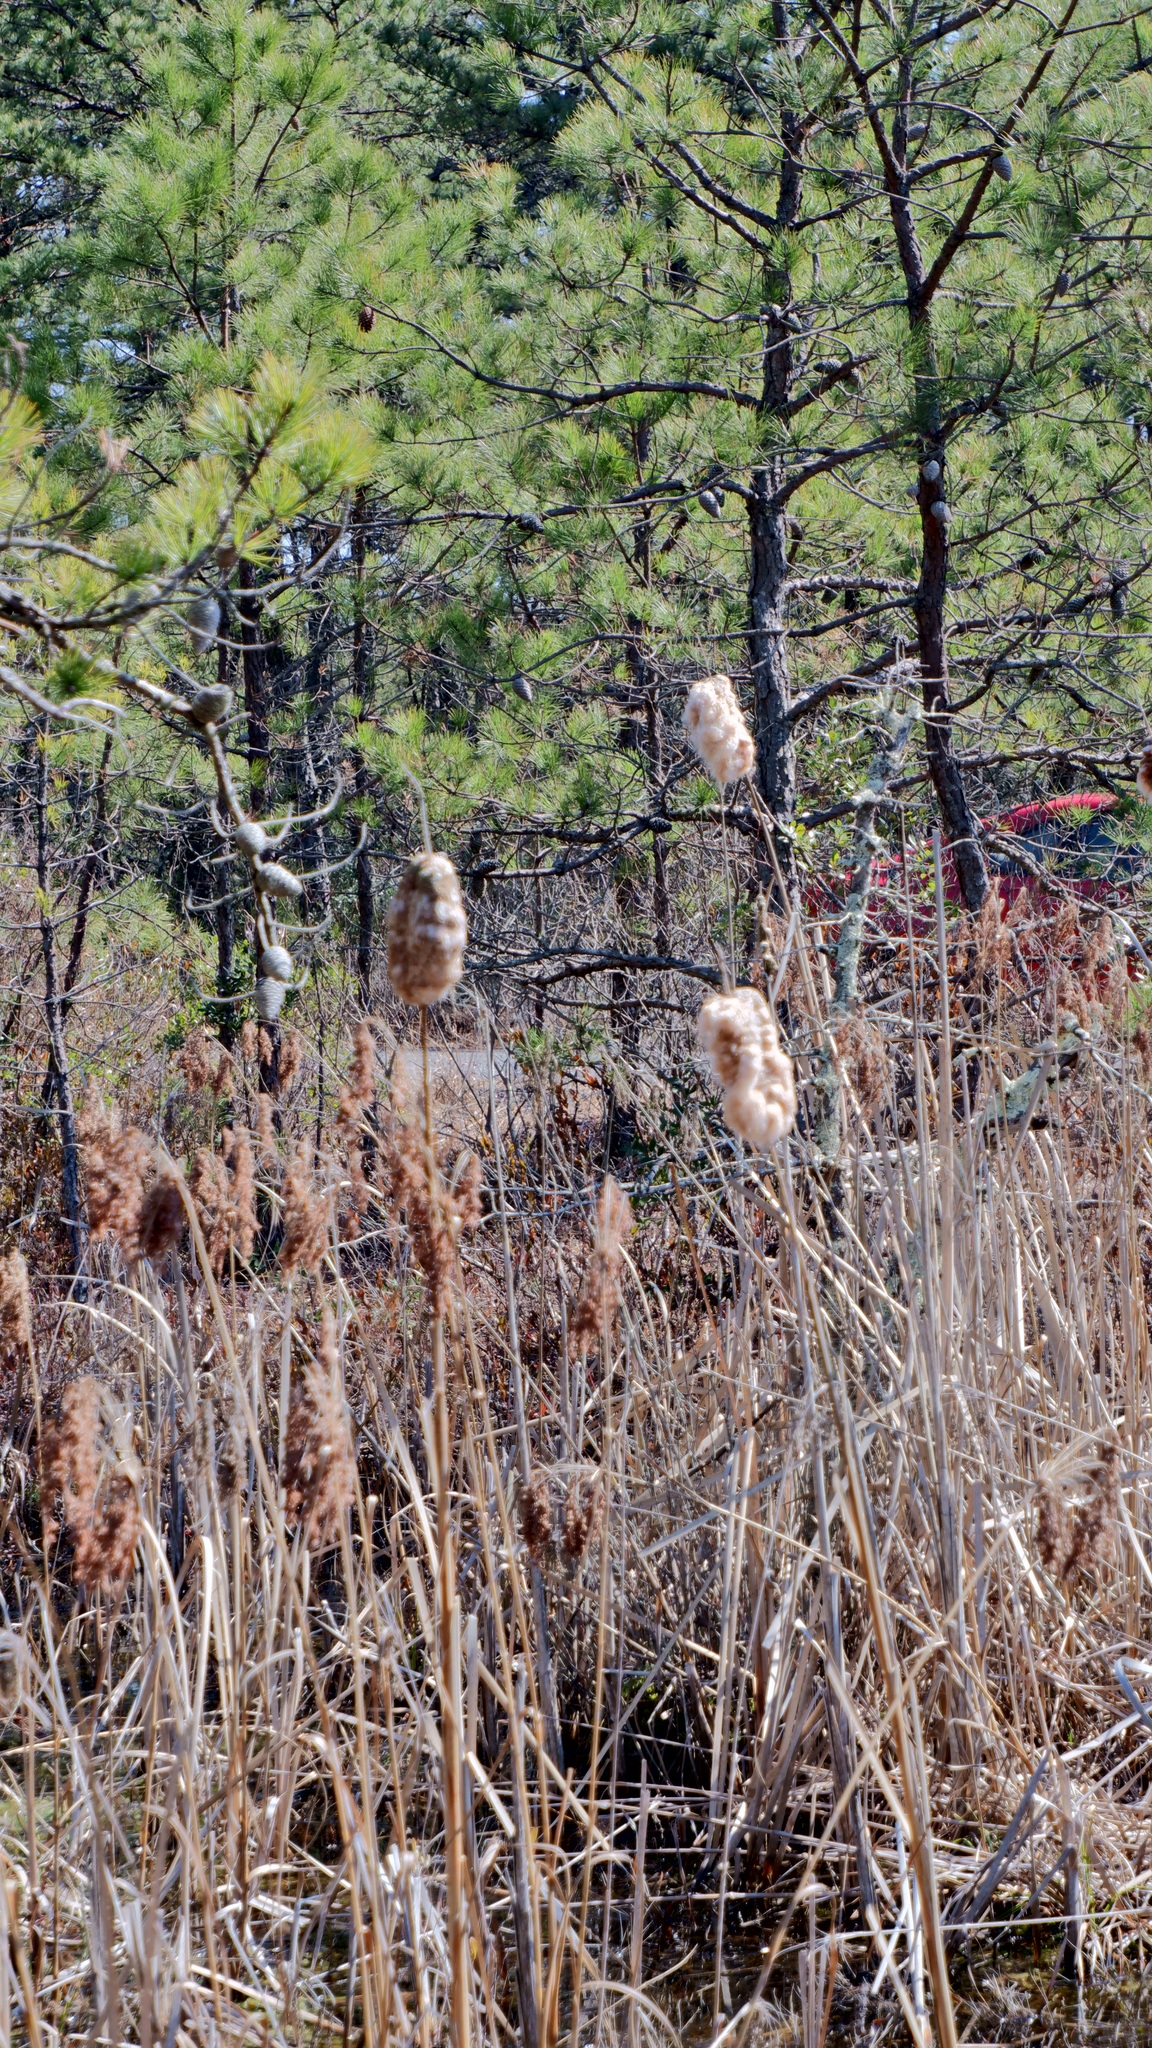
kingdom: Plantae
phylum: Tracheophyta
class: Liliopsida
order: Poales
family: Typhaceae
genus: Typha
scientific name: Typha
